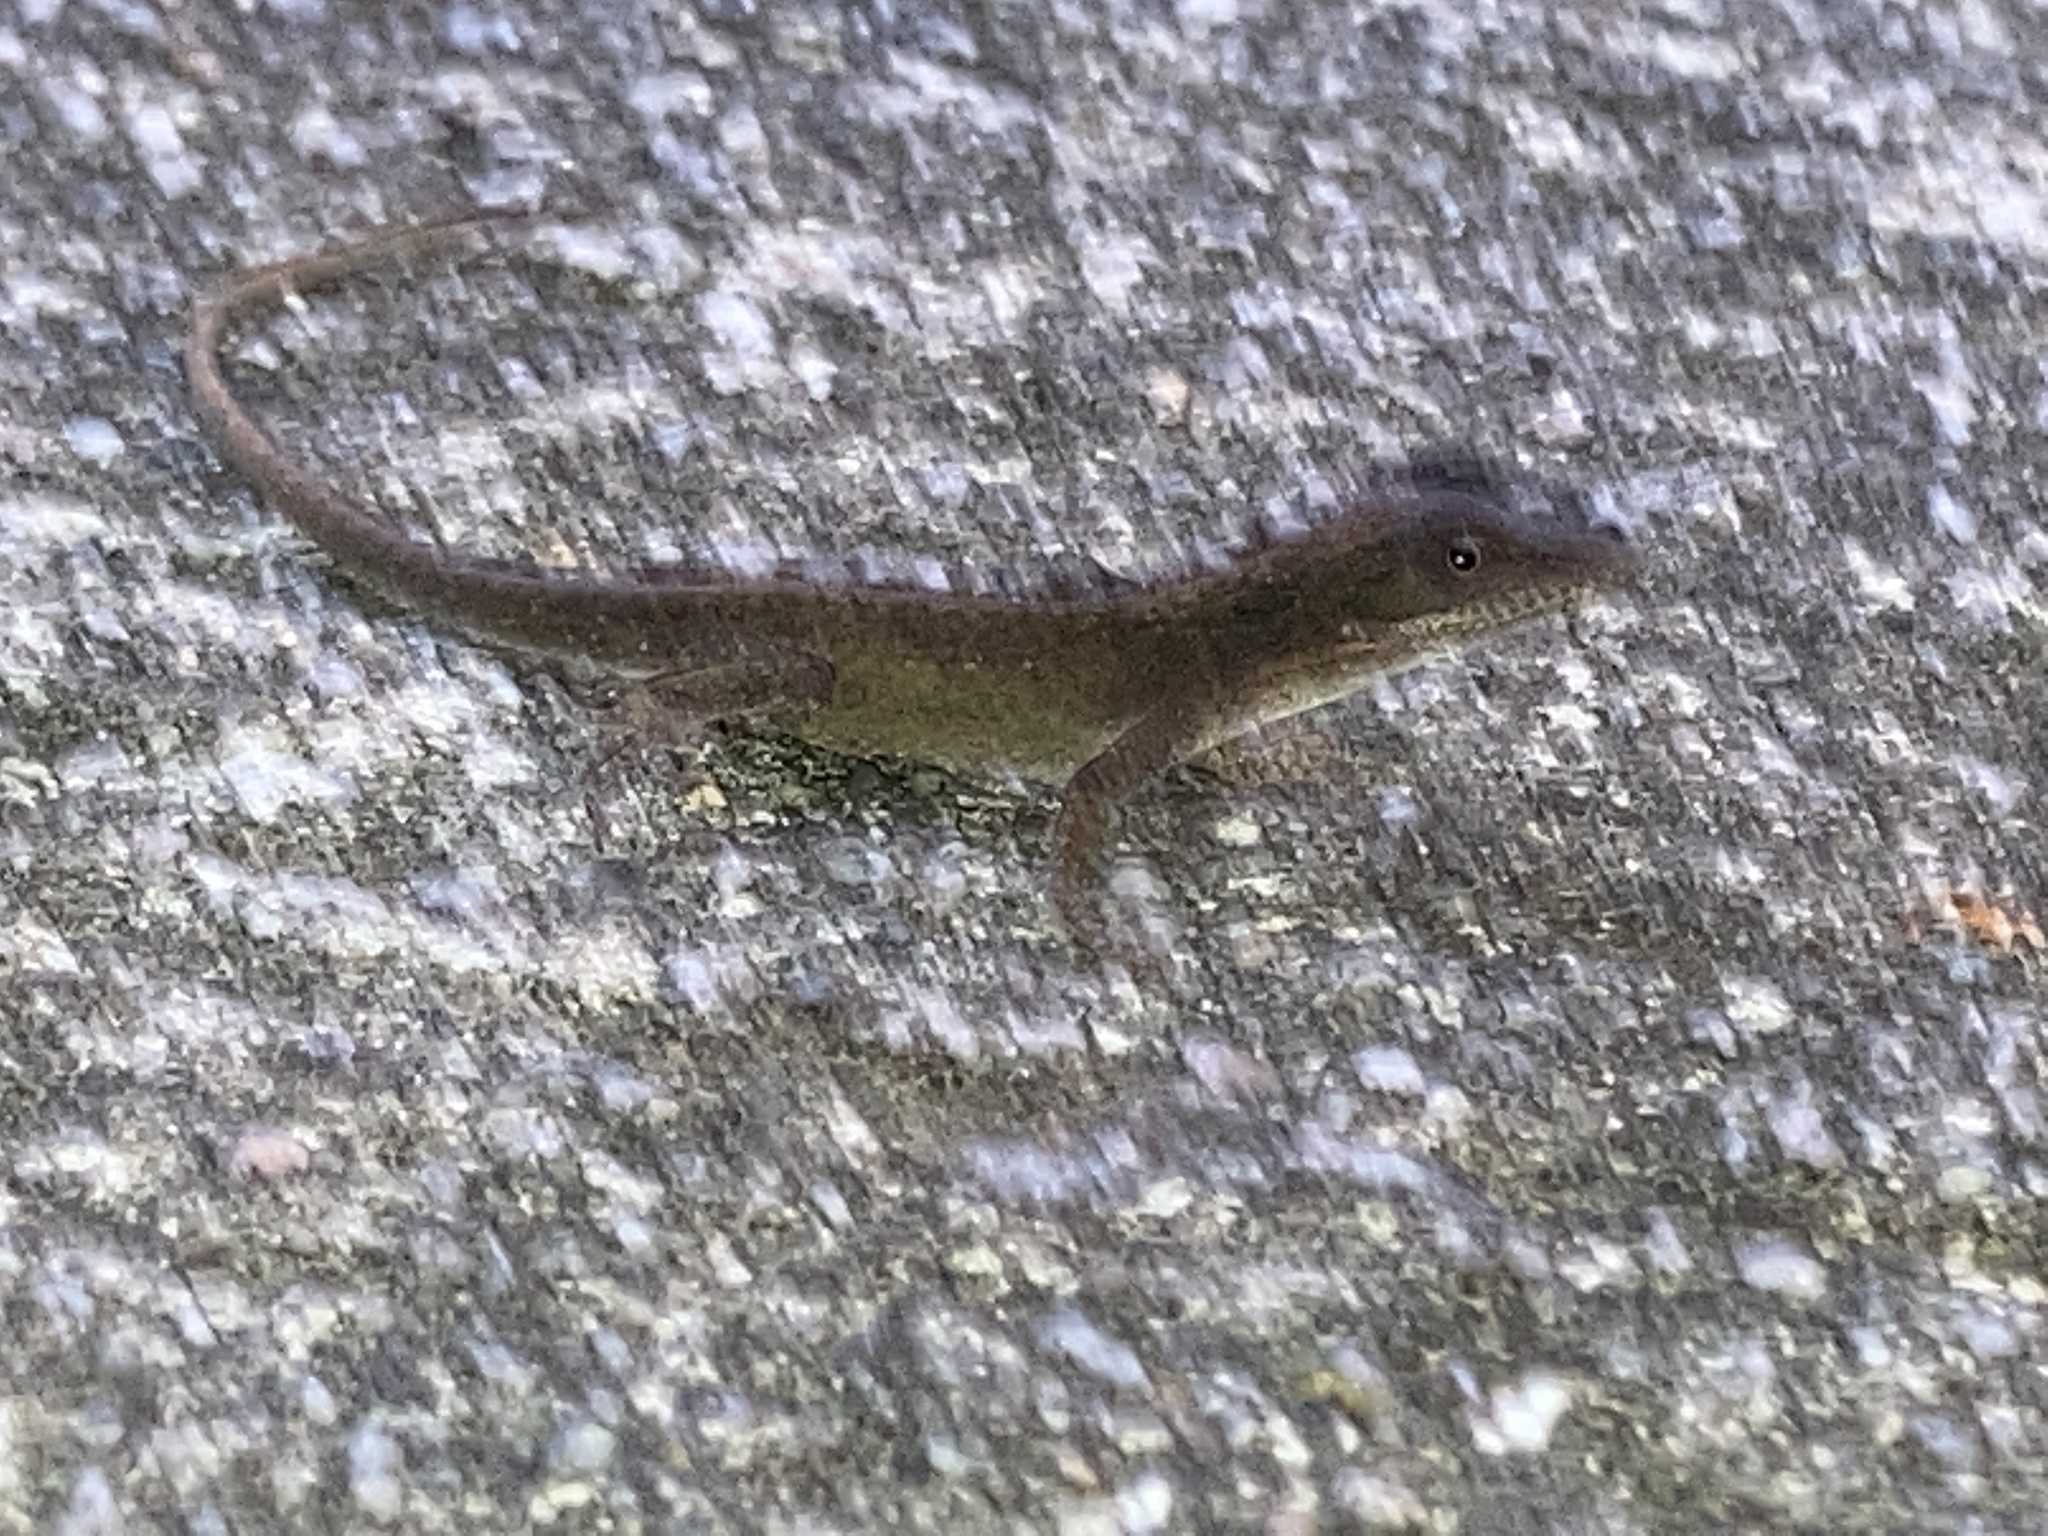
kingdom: Animalia
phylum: Chordata
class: Squamata
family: Dactyloidae
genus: Anolis
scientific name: Anolis carolinensis
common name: Green anole
